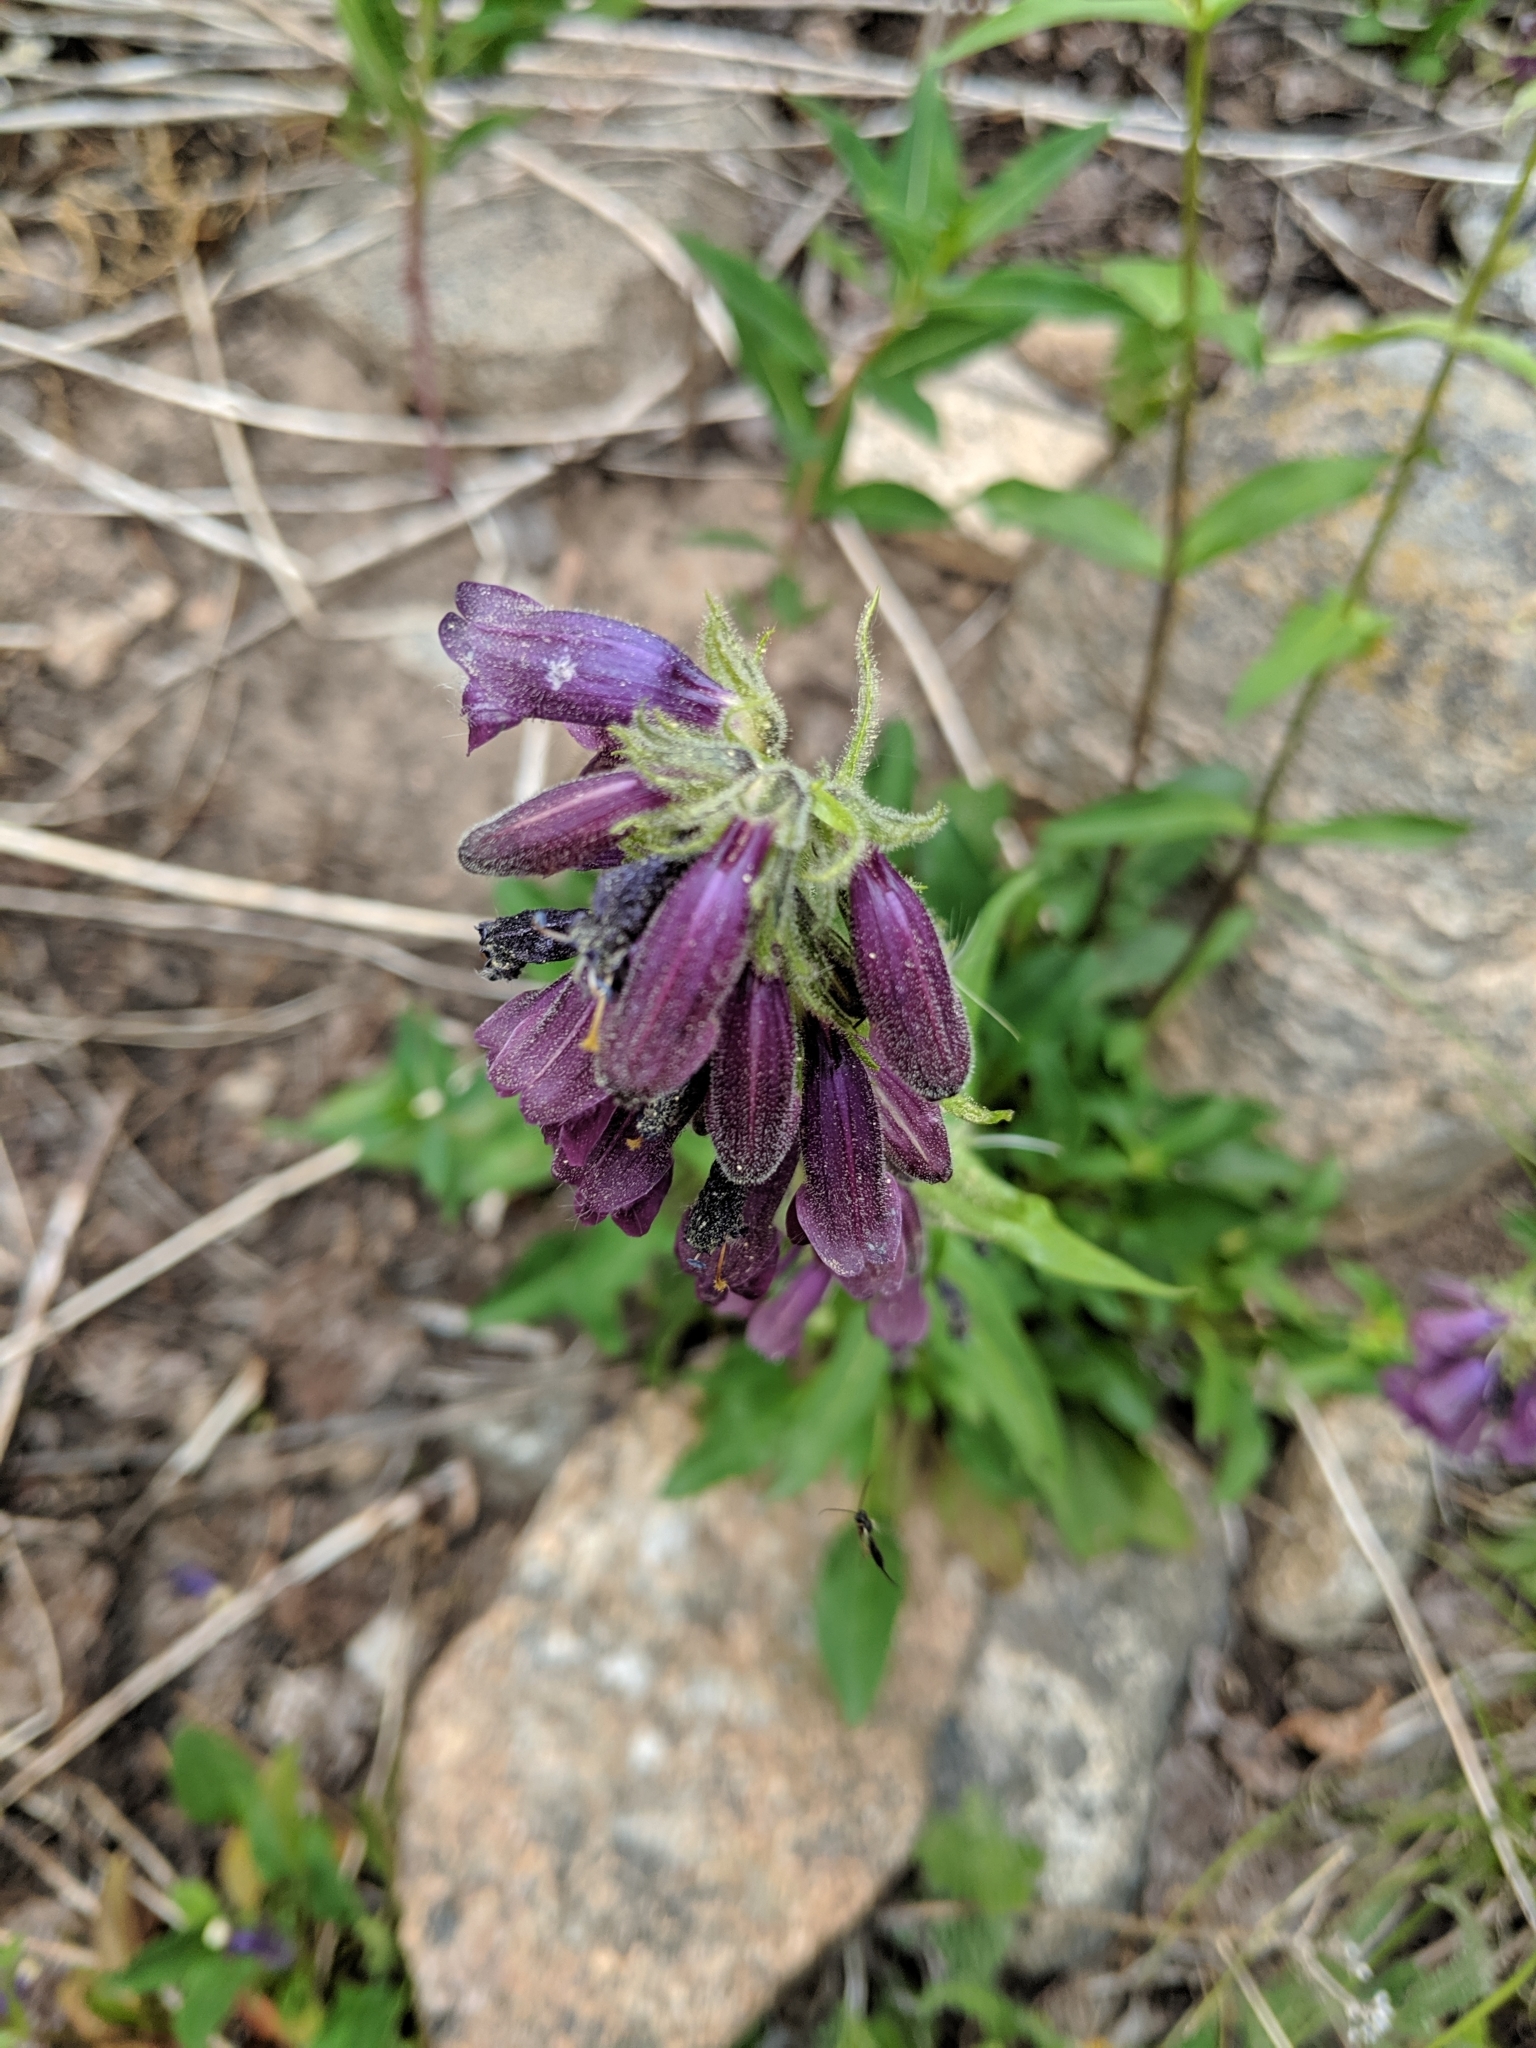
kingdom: Plantae
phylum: Tracheophyta
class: Magnoliopsida
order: Lamiales
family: Plantaginaceae
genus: Penstemon
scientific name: Penstemon whippleanus
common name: Whipple's penstemon
